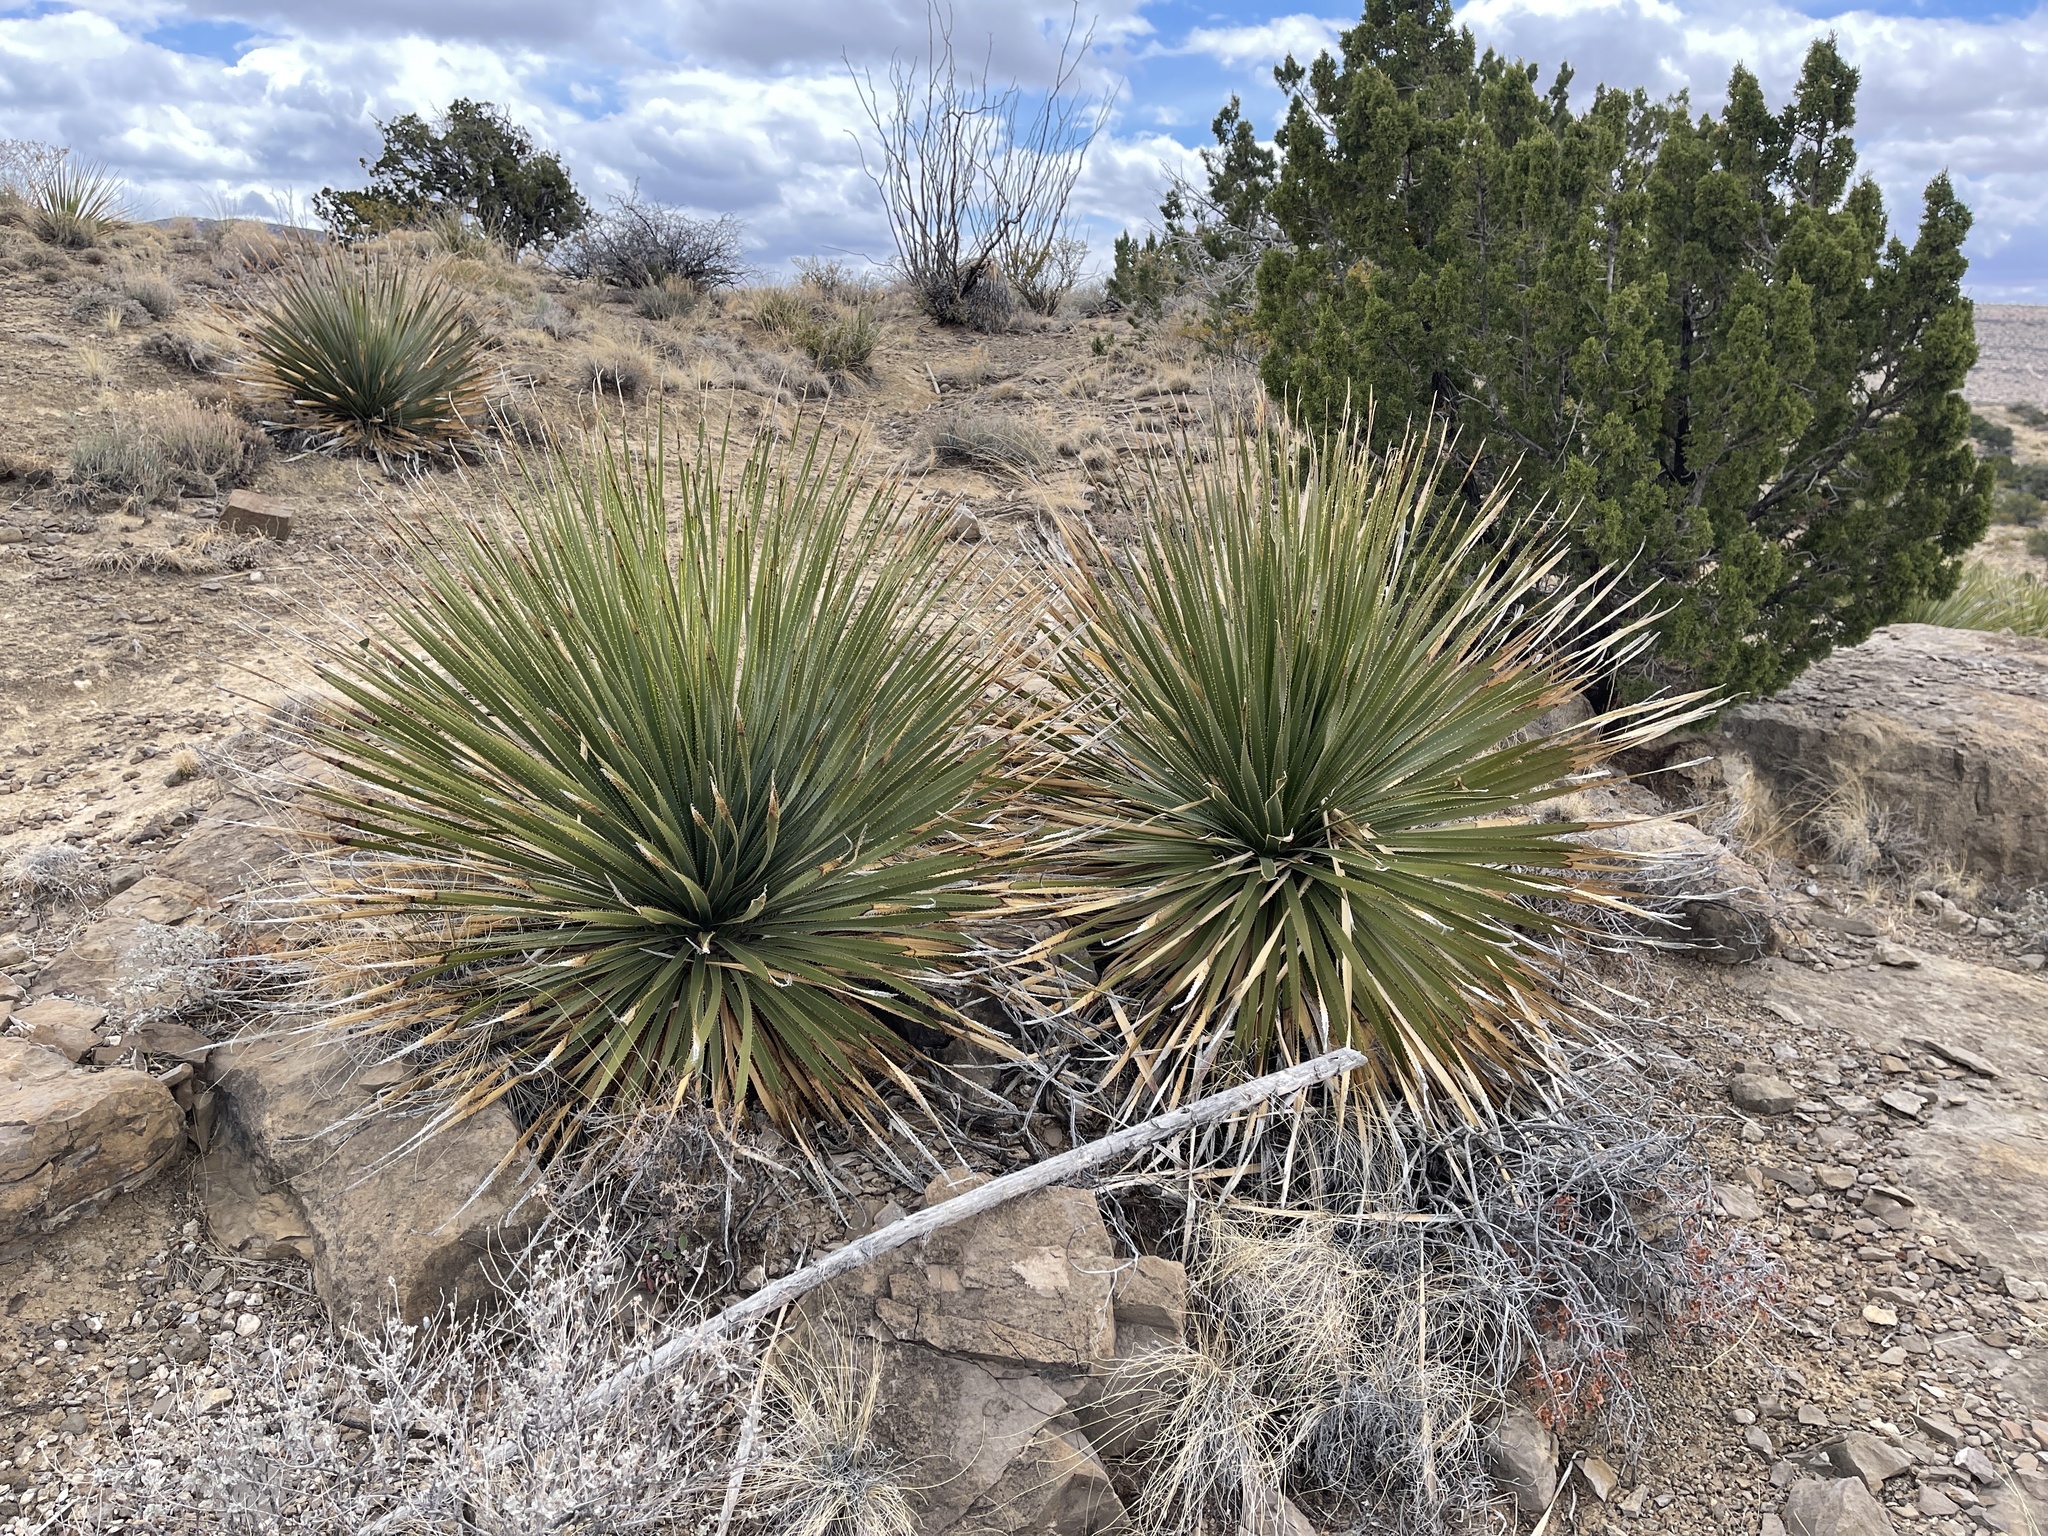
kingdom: Plantae
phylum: Tracheophyta
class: Liliopsida
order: Asparagales
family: Asparagaceae
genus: Dasylirion
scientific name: Dasylirion wheeleri
